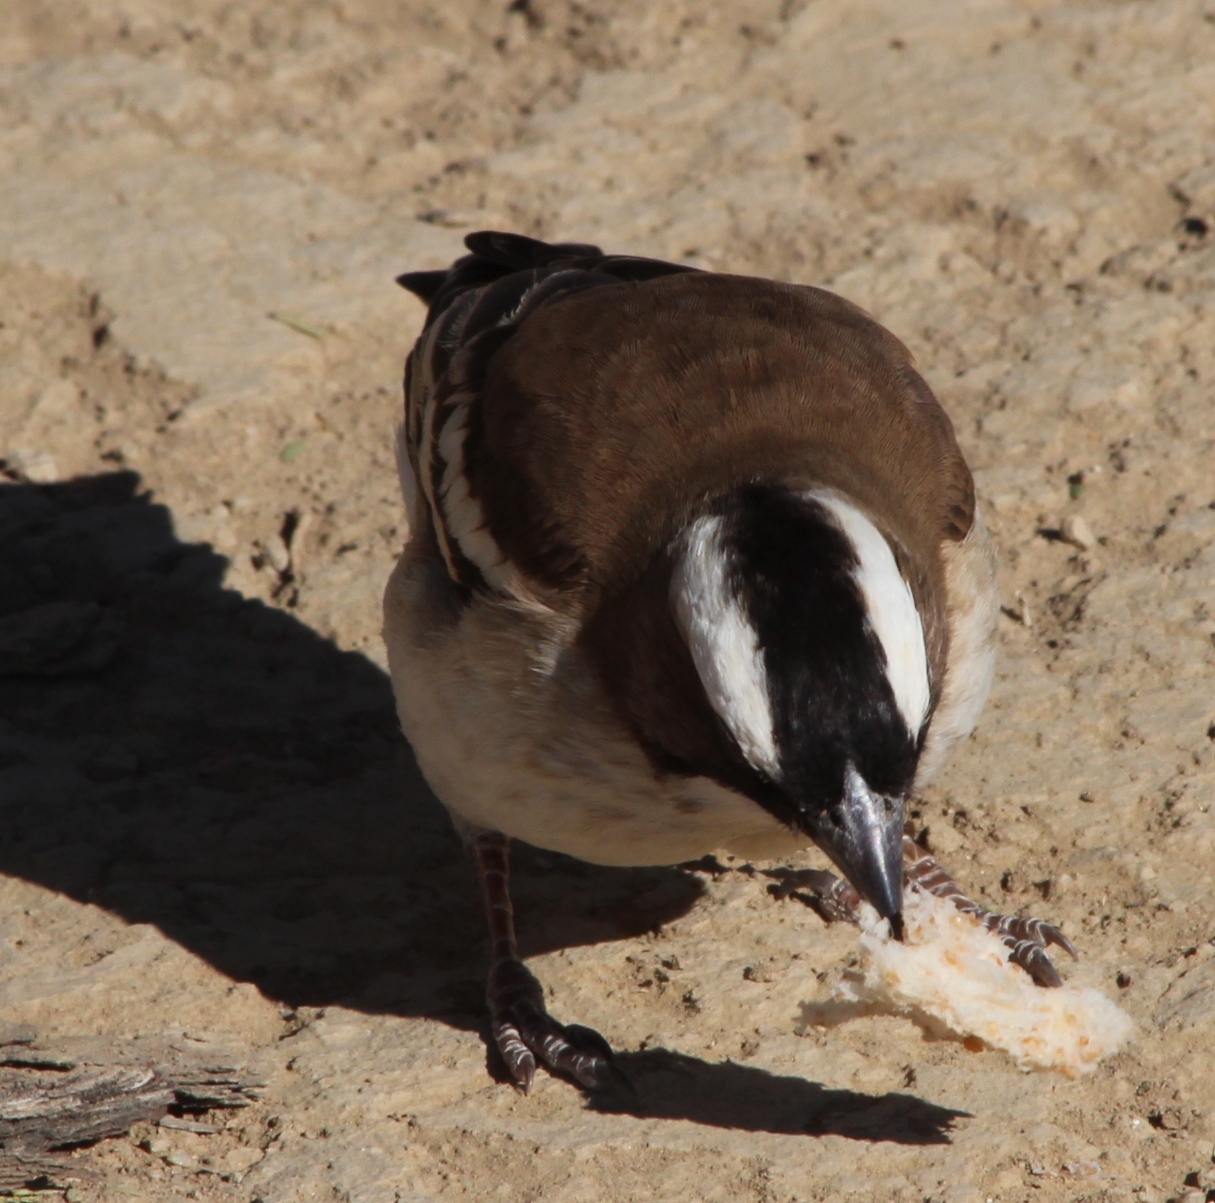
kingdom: Animalia
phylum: Chordata
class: Aves
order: Passeriformes
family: Passeridae
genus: Plocepasser
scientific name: Plocepasser mahali
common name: White-browed sparrow-weaver
